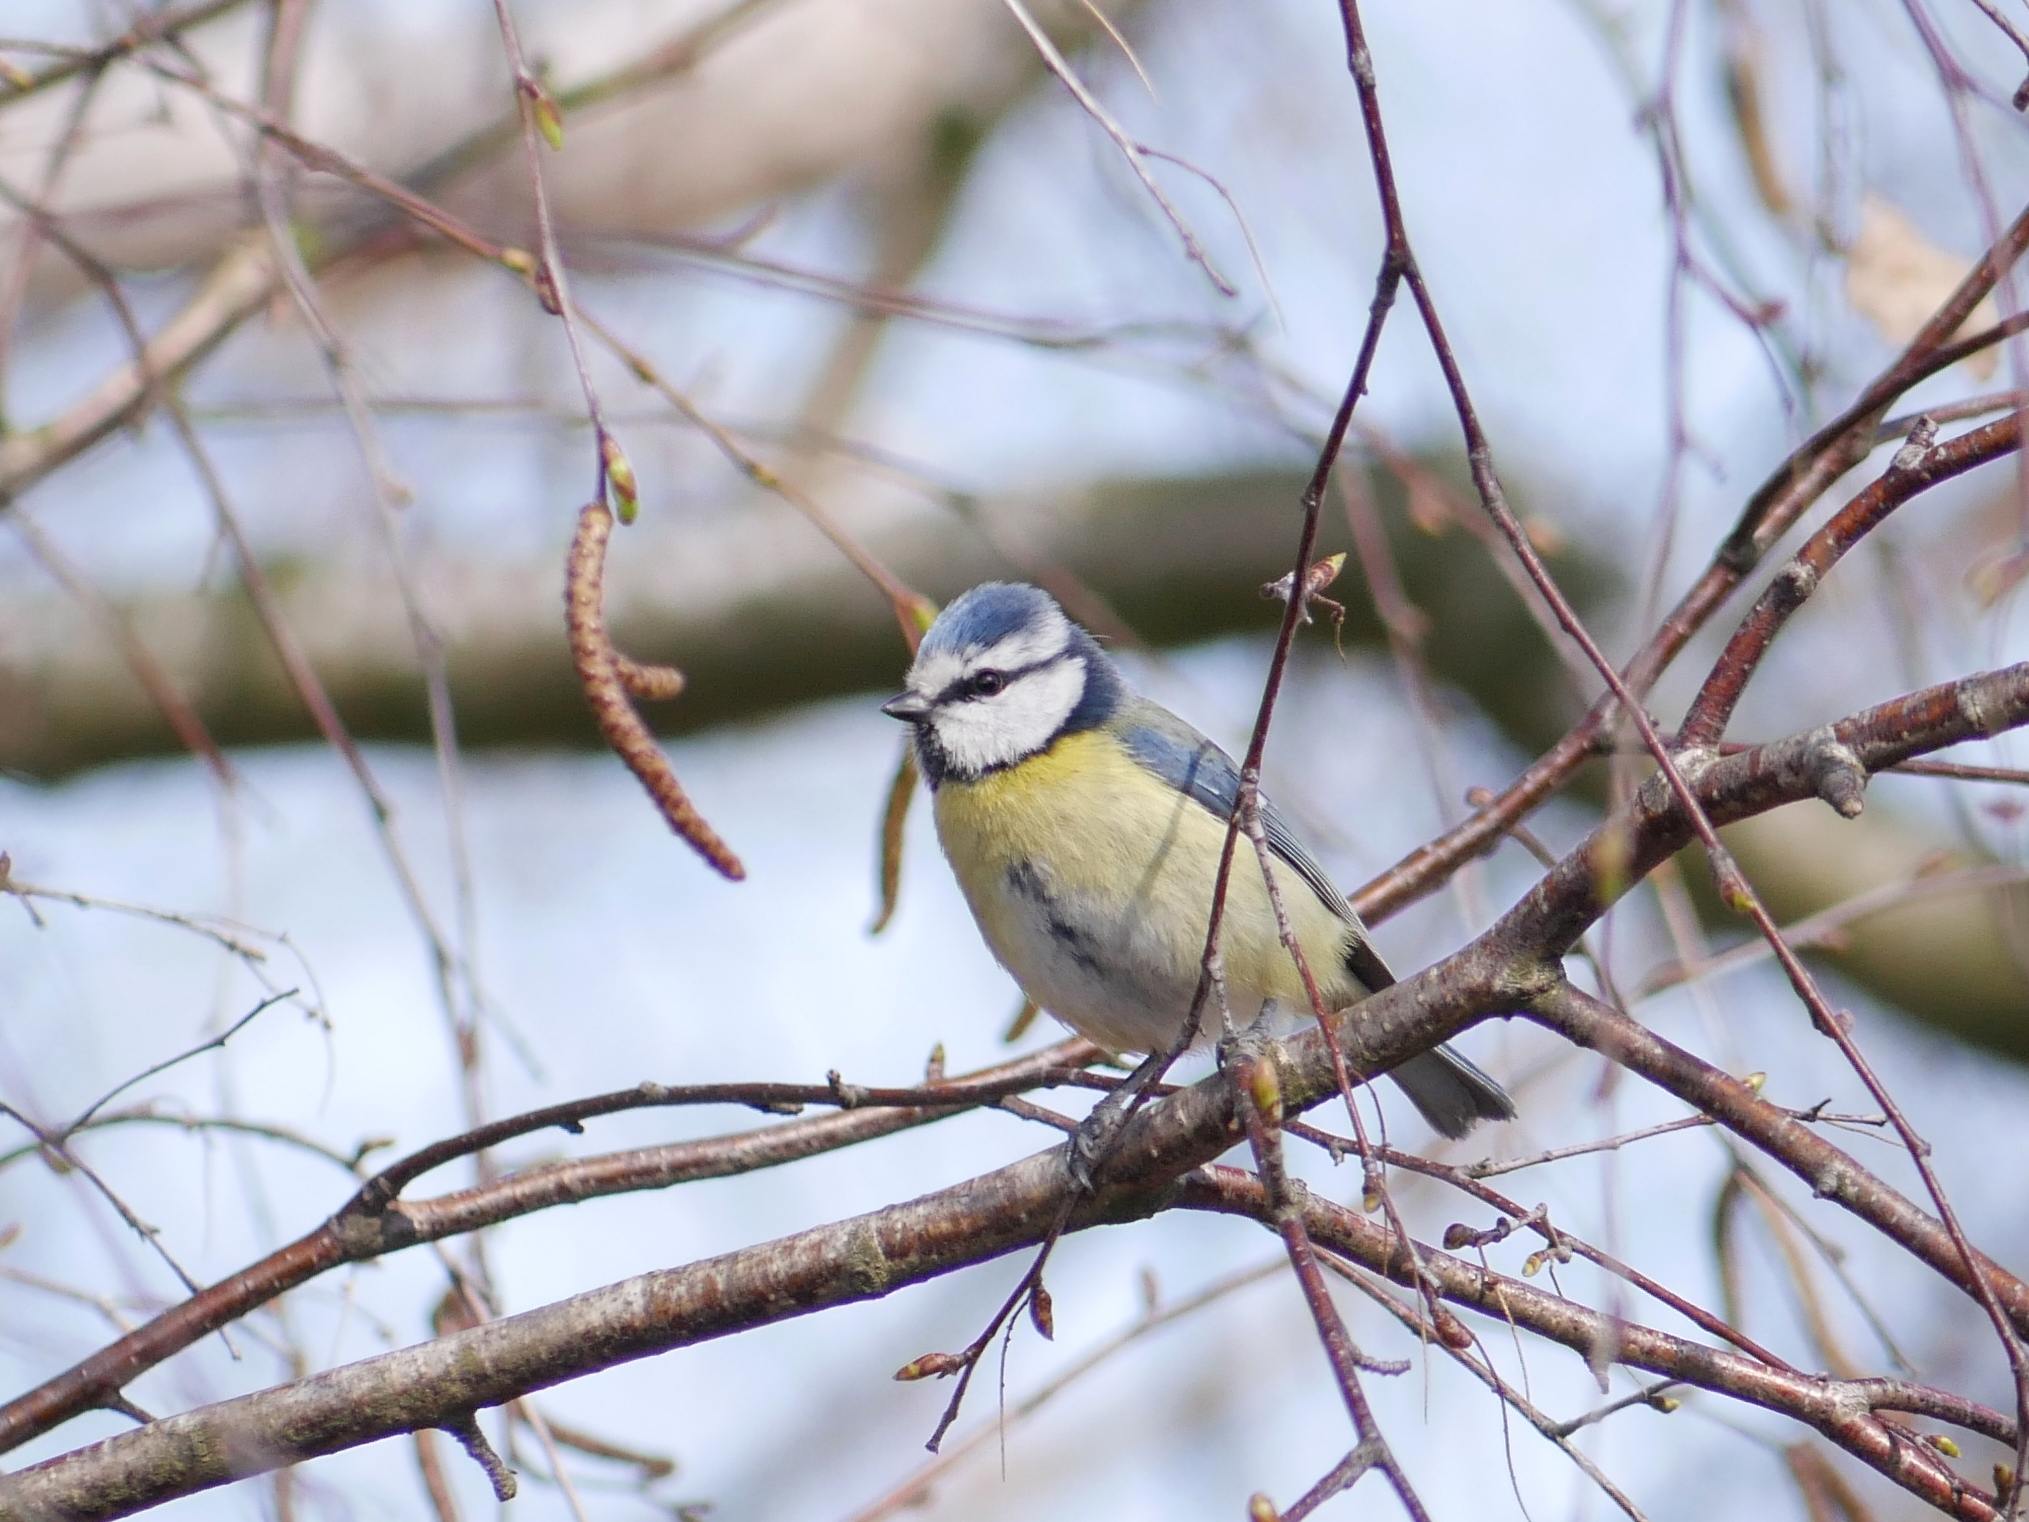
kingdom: Animalia
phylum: Chordata
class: Aves
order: Passeriformes
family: Paridae
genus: Cyanistes
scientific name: Cyanistes caeruleus
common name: Eurasian blue tit
